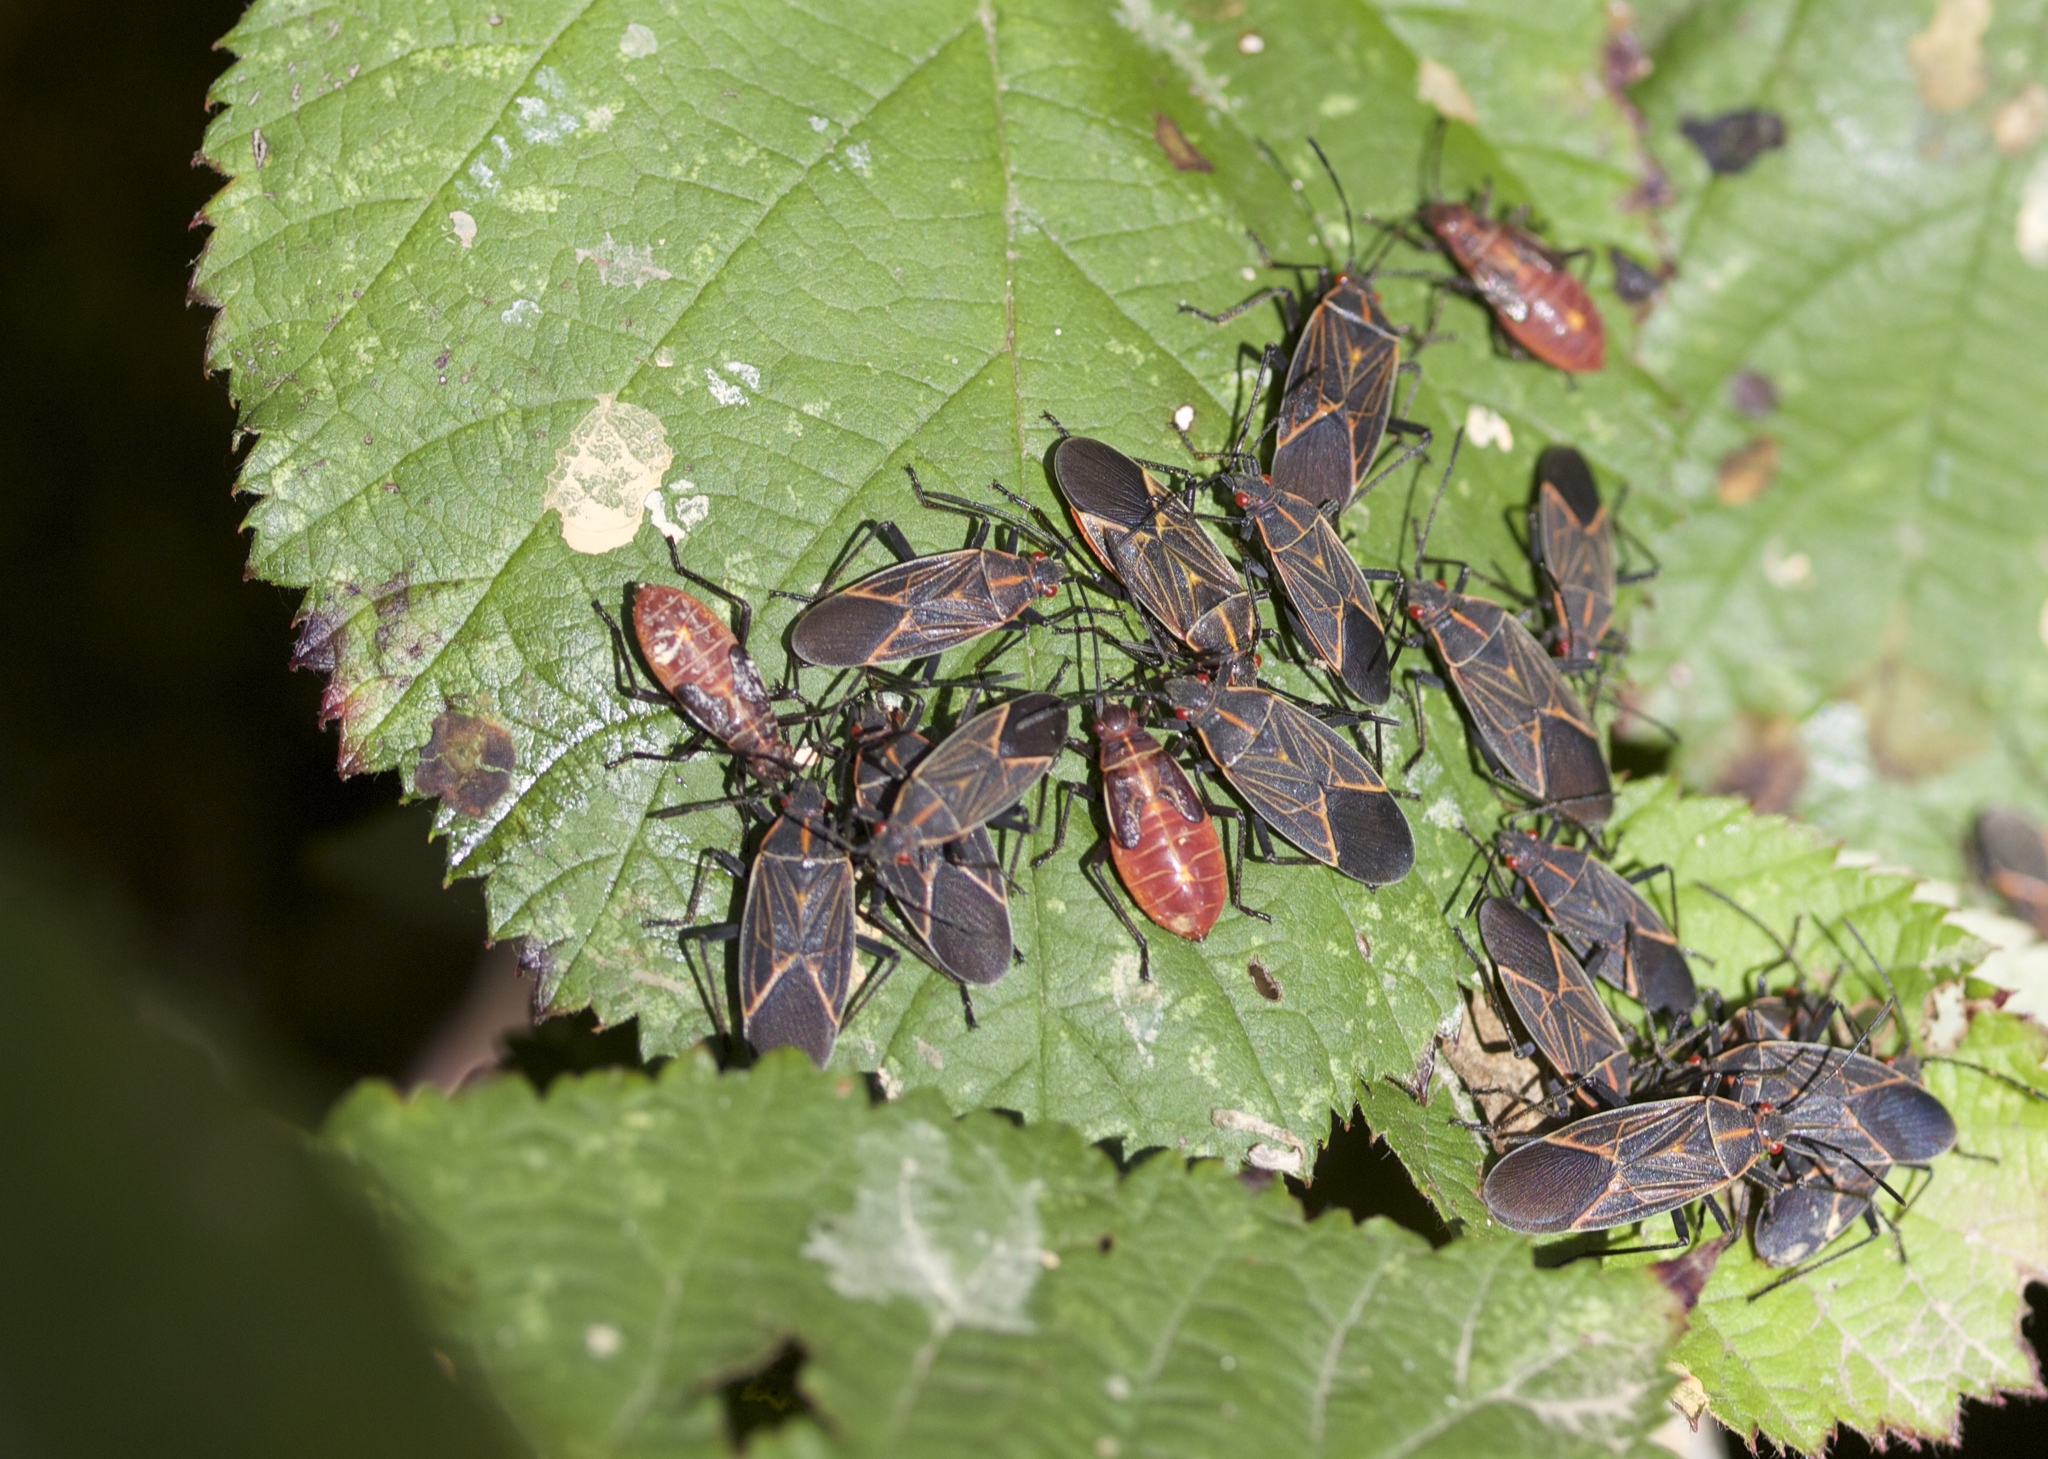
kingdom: Animalia
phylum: Arthropoda
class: Insecta
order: Hemiptera
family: Rhopalidae
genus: Boisea
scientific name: Boisea rubrolineata
